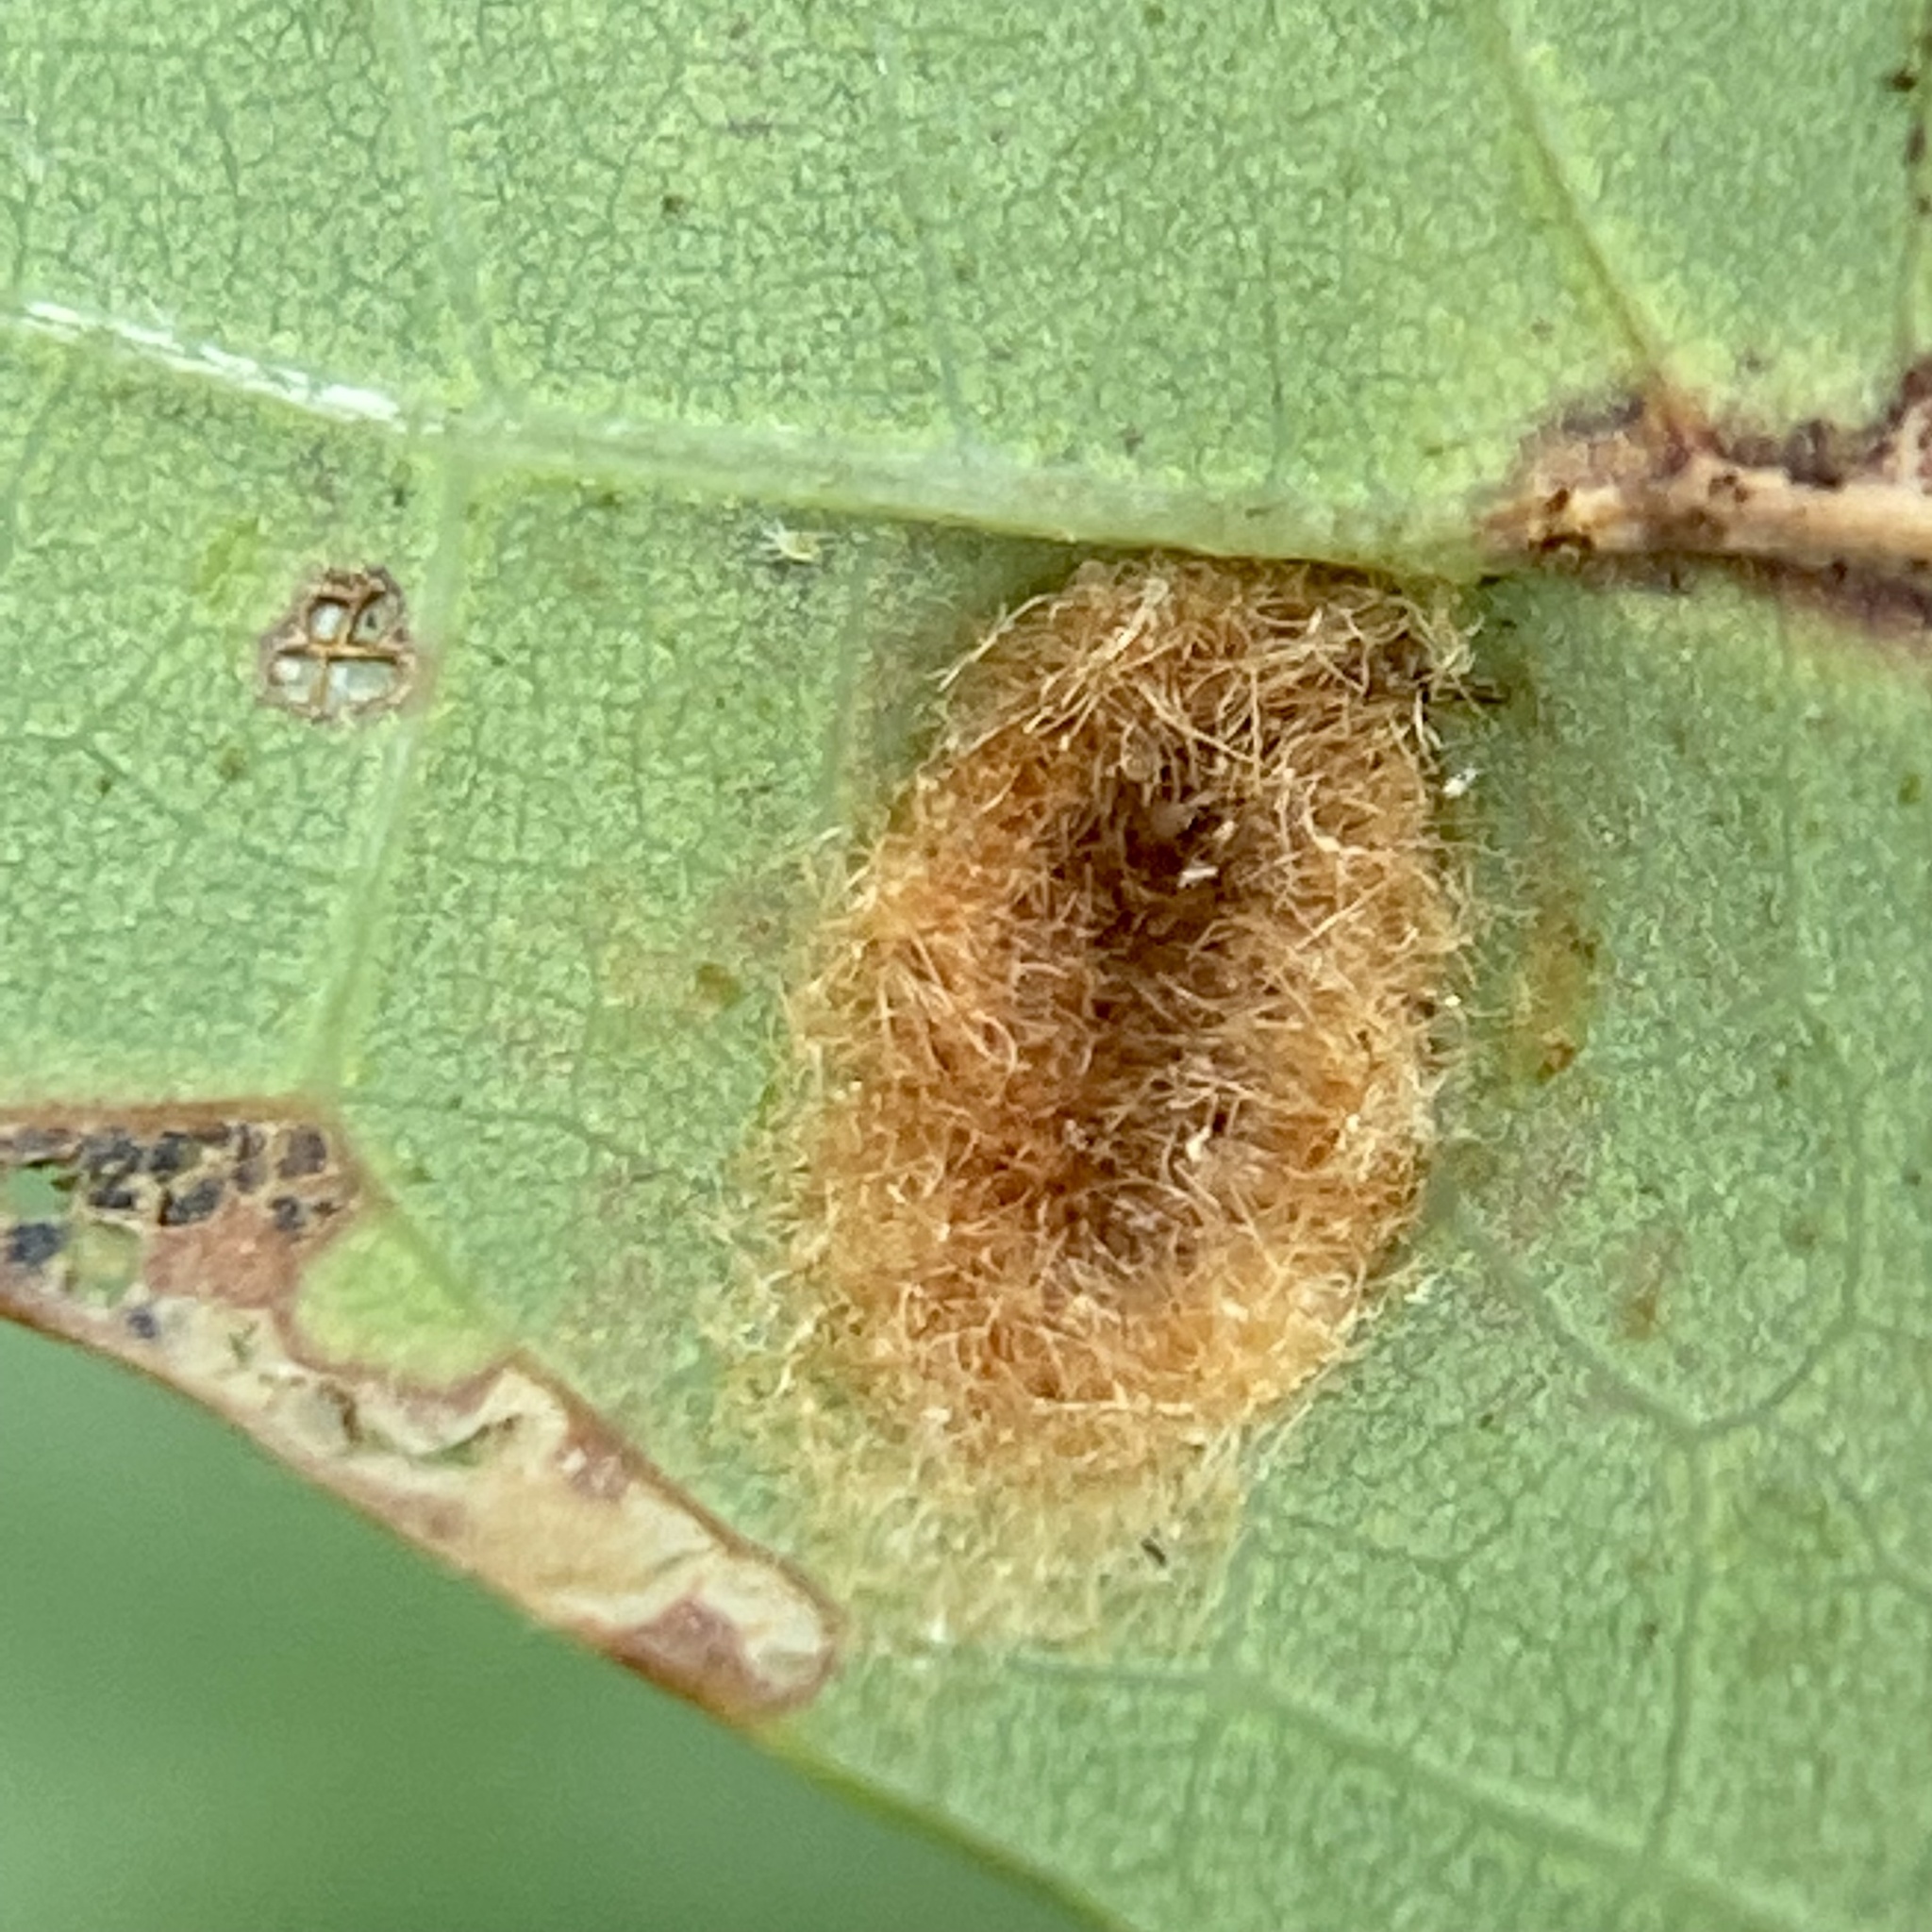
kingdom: Animalia
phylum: Arthropoda
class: Arachnida
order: Trombidiformes
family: Eriophyidae
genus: Aceria
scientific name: Aceria
